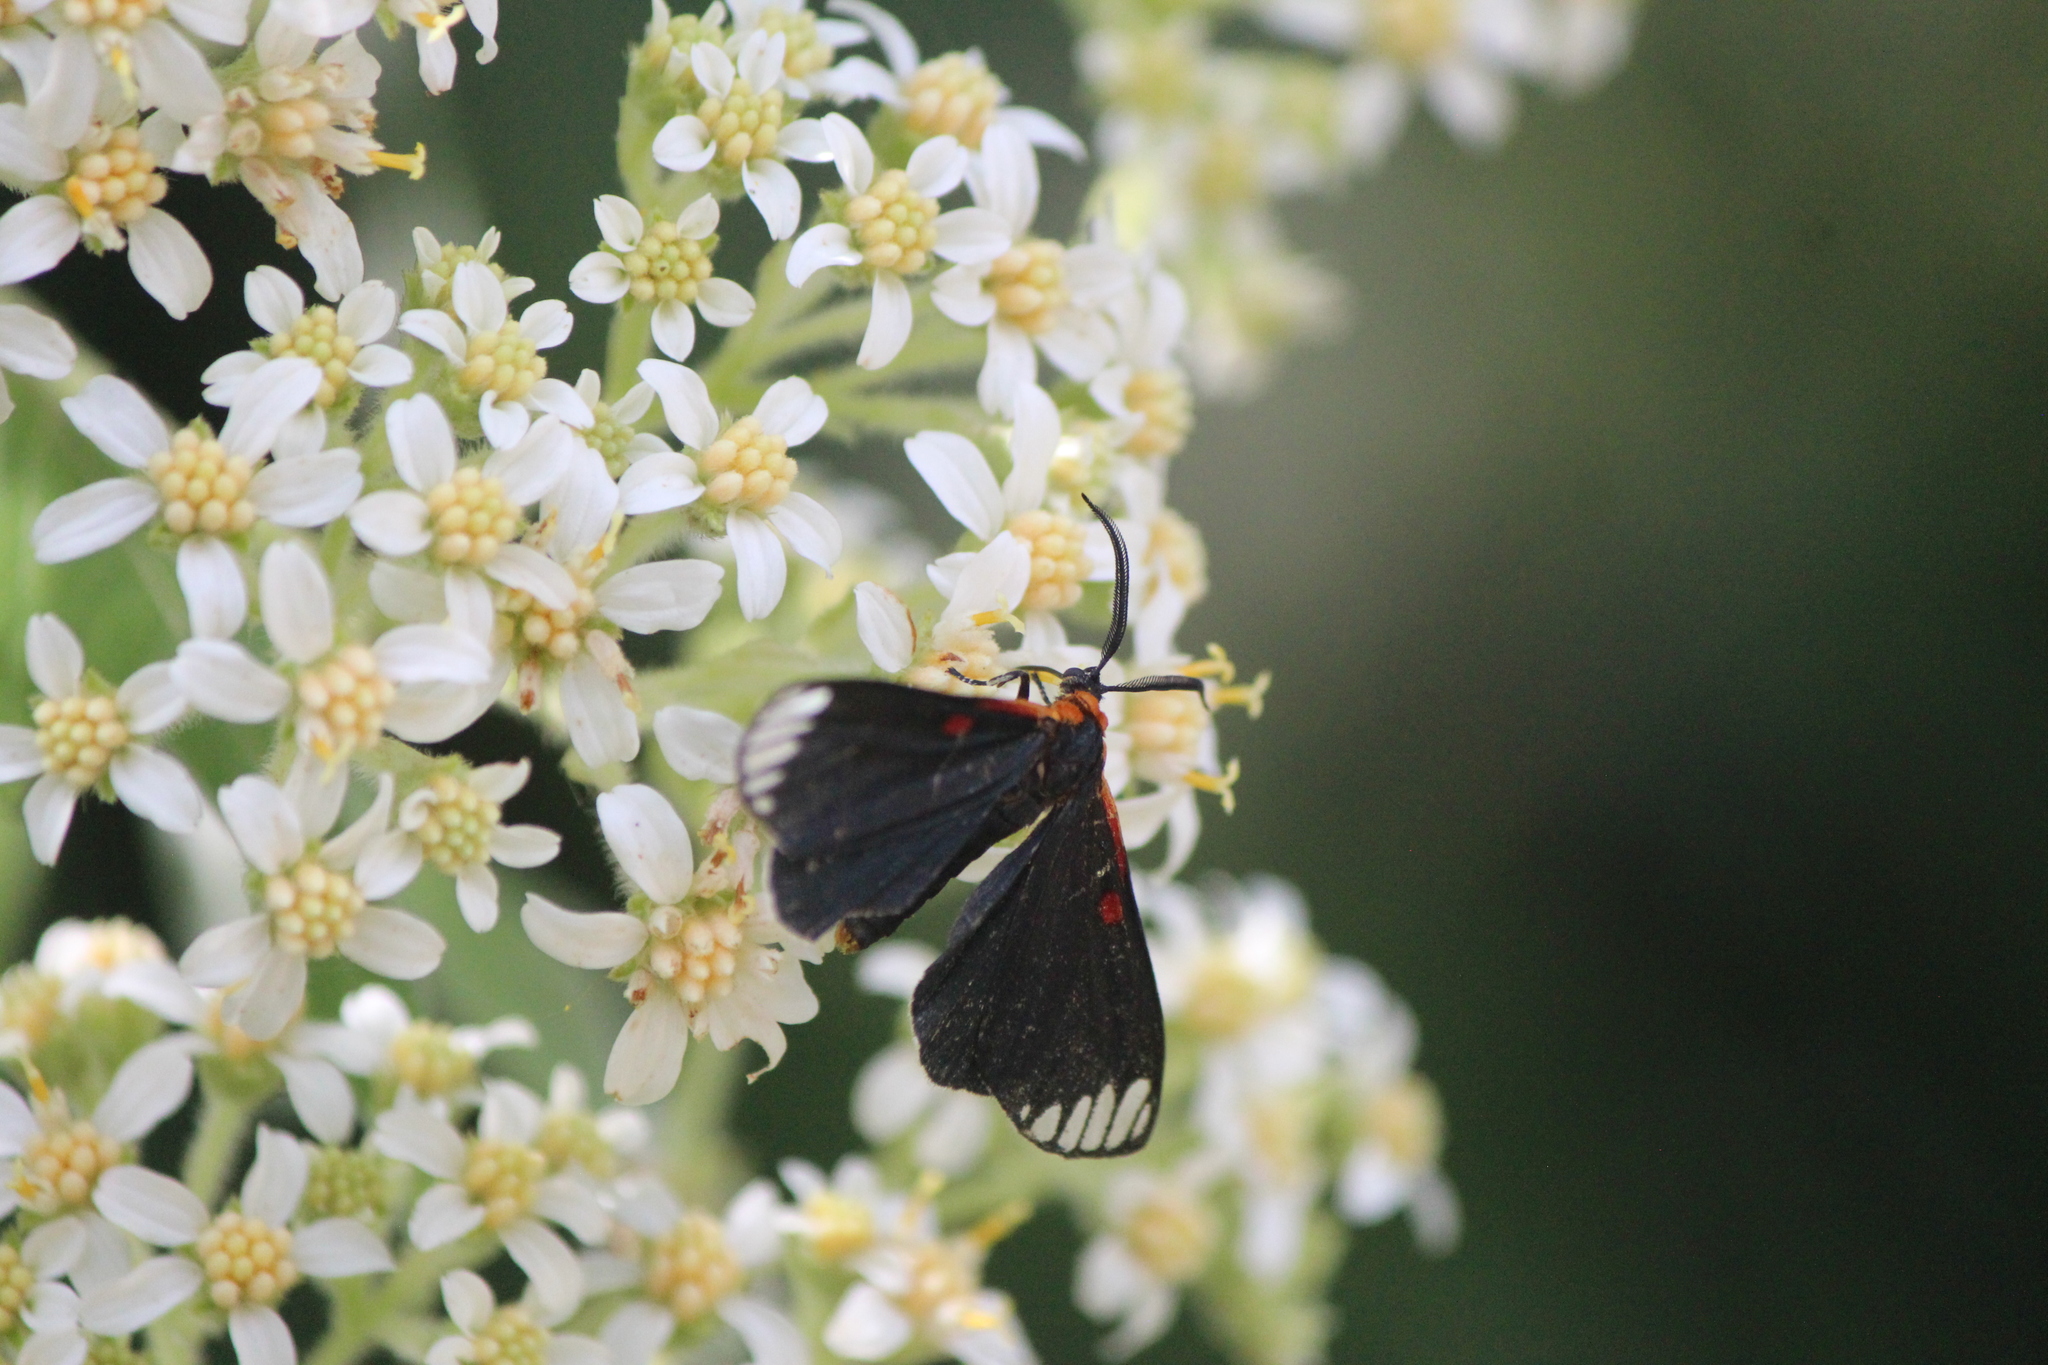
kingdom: Animalia
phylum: Arthropoda
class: Insecta
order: Lepidoptera
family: Erebidae
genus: Phaloesia
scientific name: Phaloesia saucia
